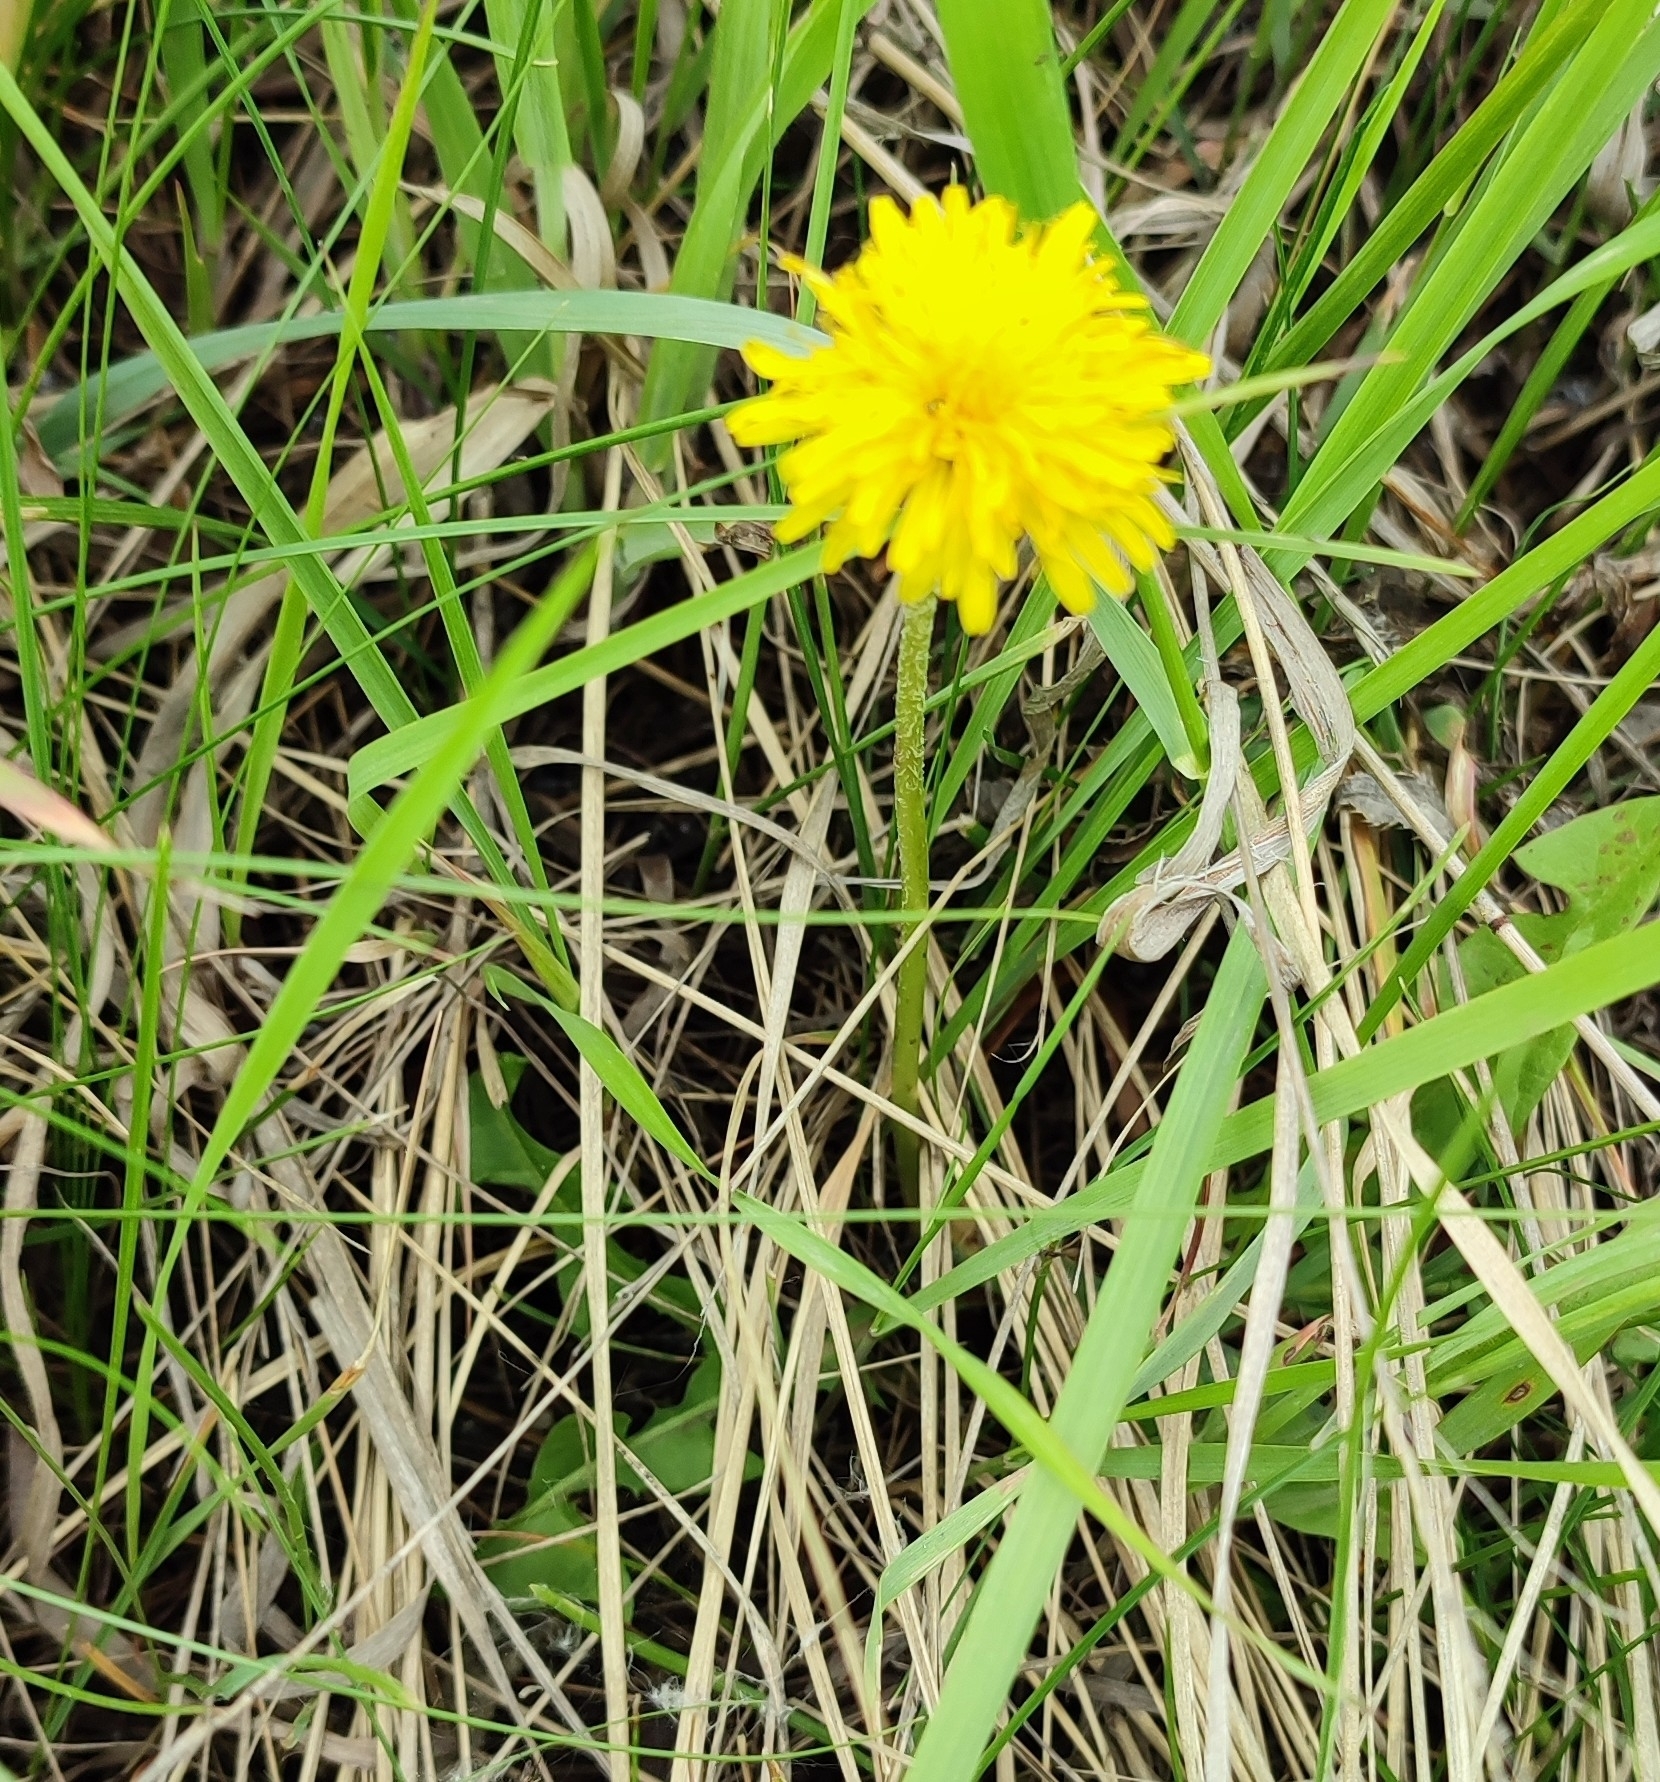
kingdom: Plantae
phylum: Tracheophyta
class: Magnoliopsida
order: Asterales
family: Asteraceae
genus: Taraxacum
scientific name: Taraxacum officinale
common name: Common dandelion
